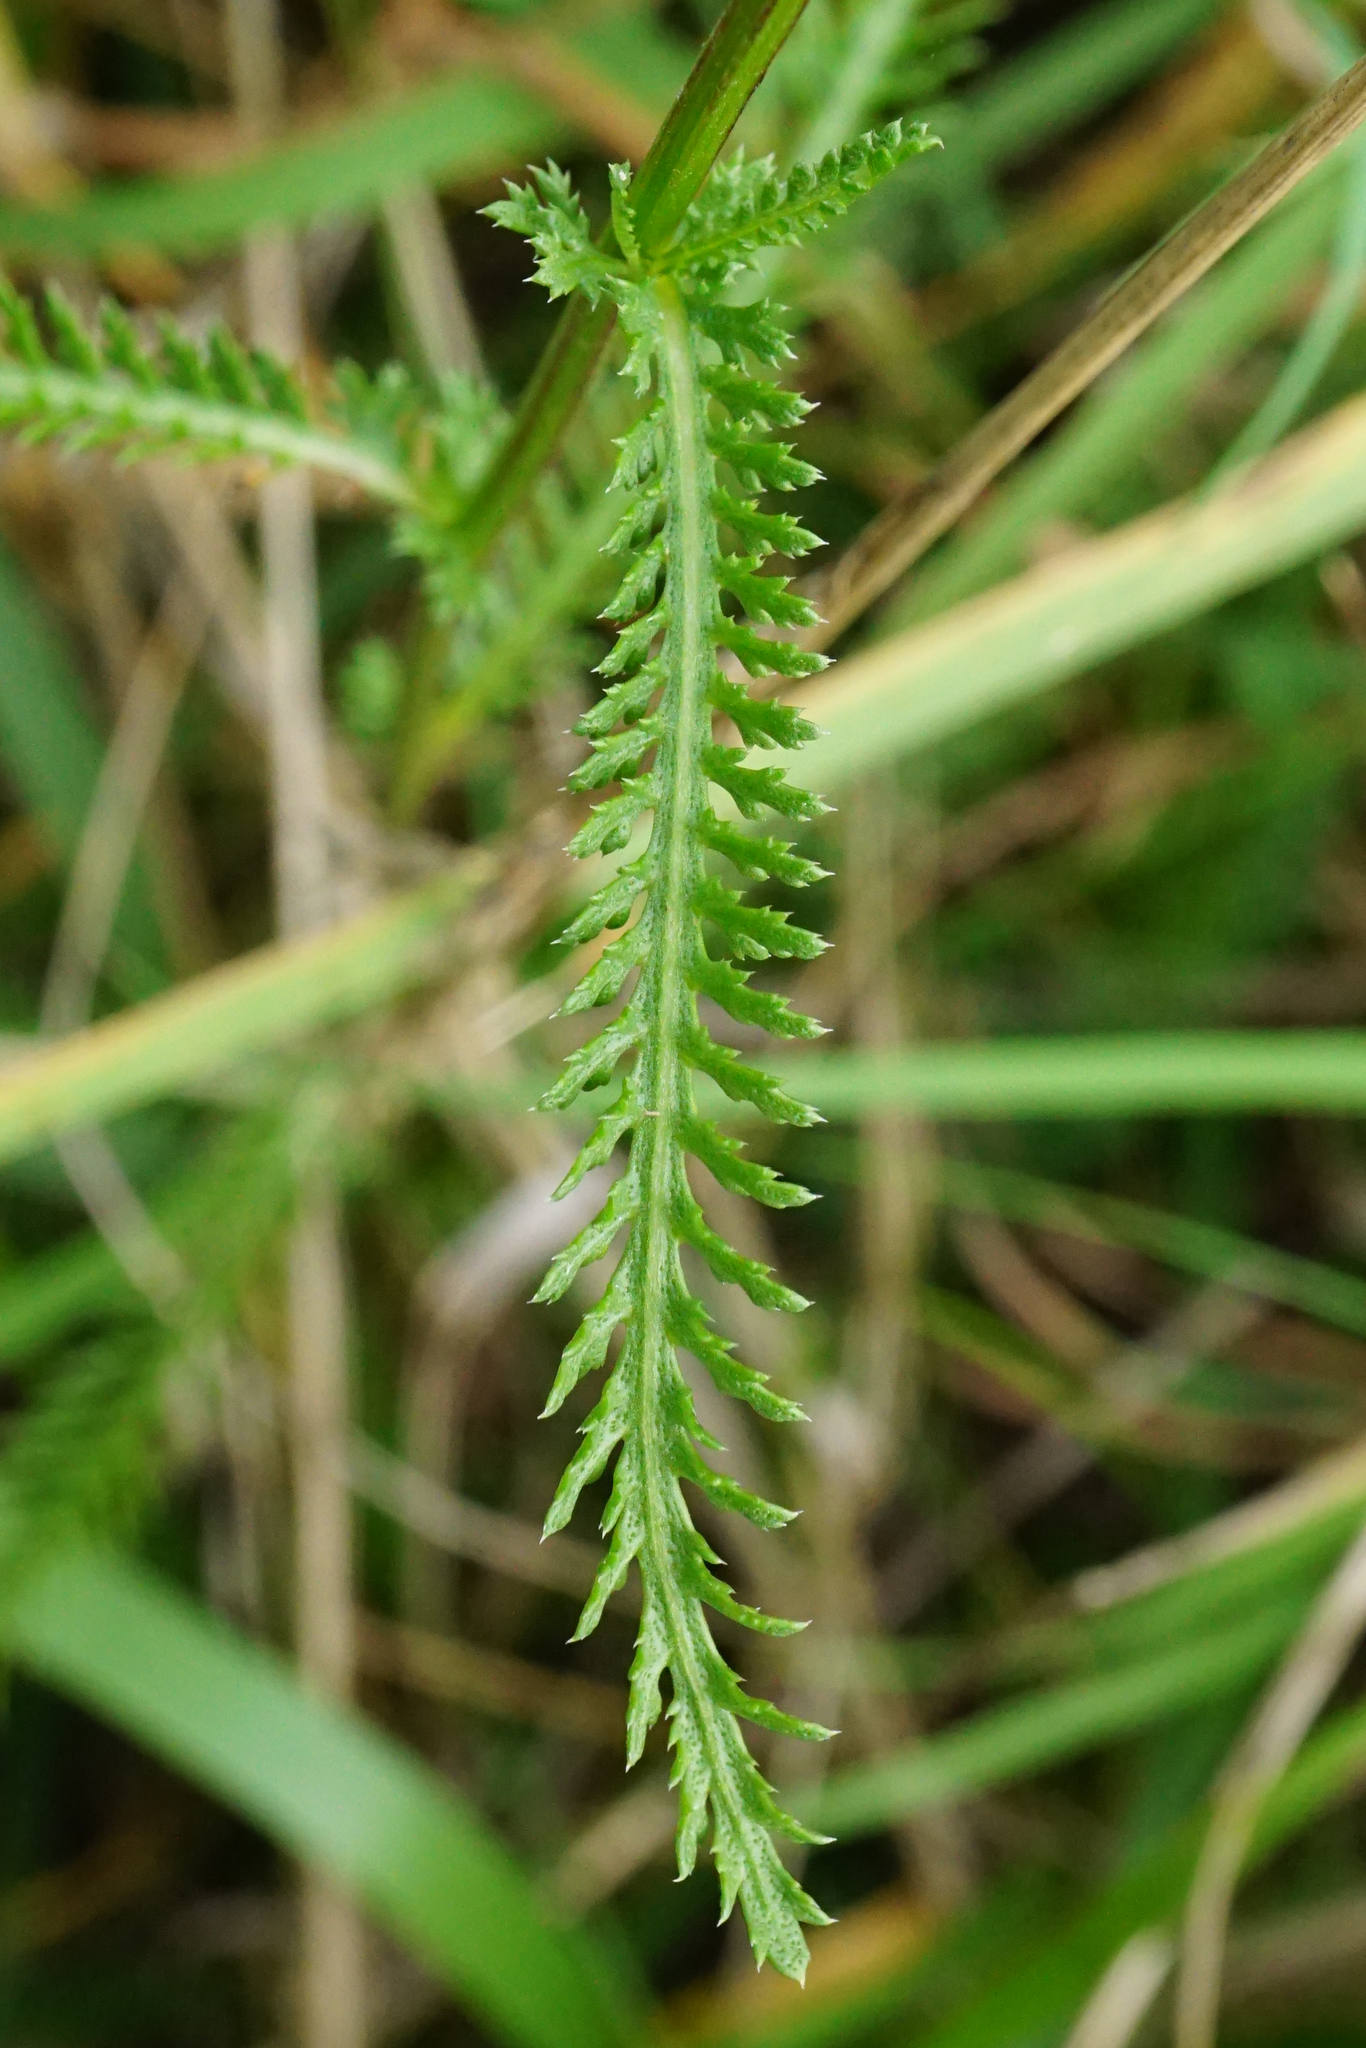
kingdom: Plantae
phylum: Tracheophyta
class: Magnoliopsida
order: Asterales
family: Asteraceae
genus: Achillea
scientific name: Achillea aspleniifolia
